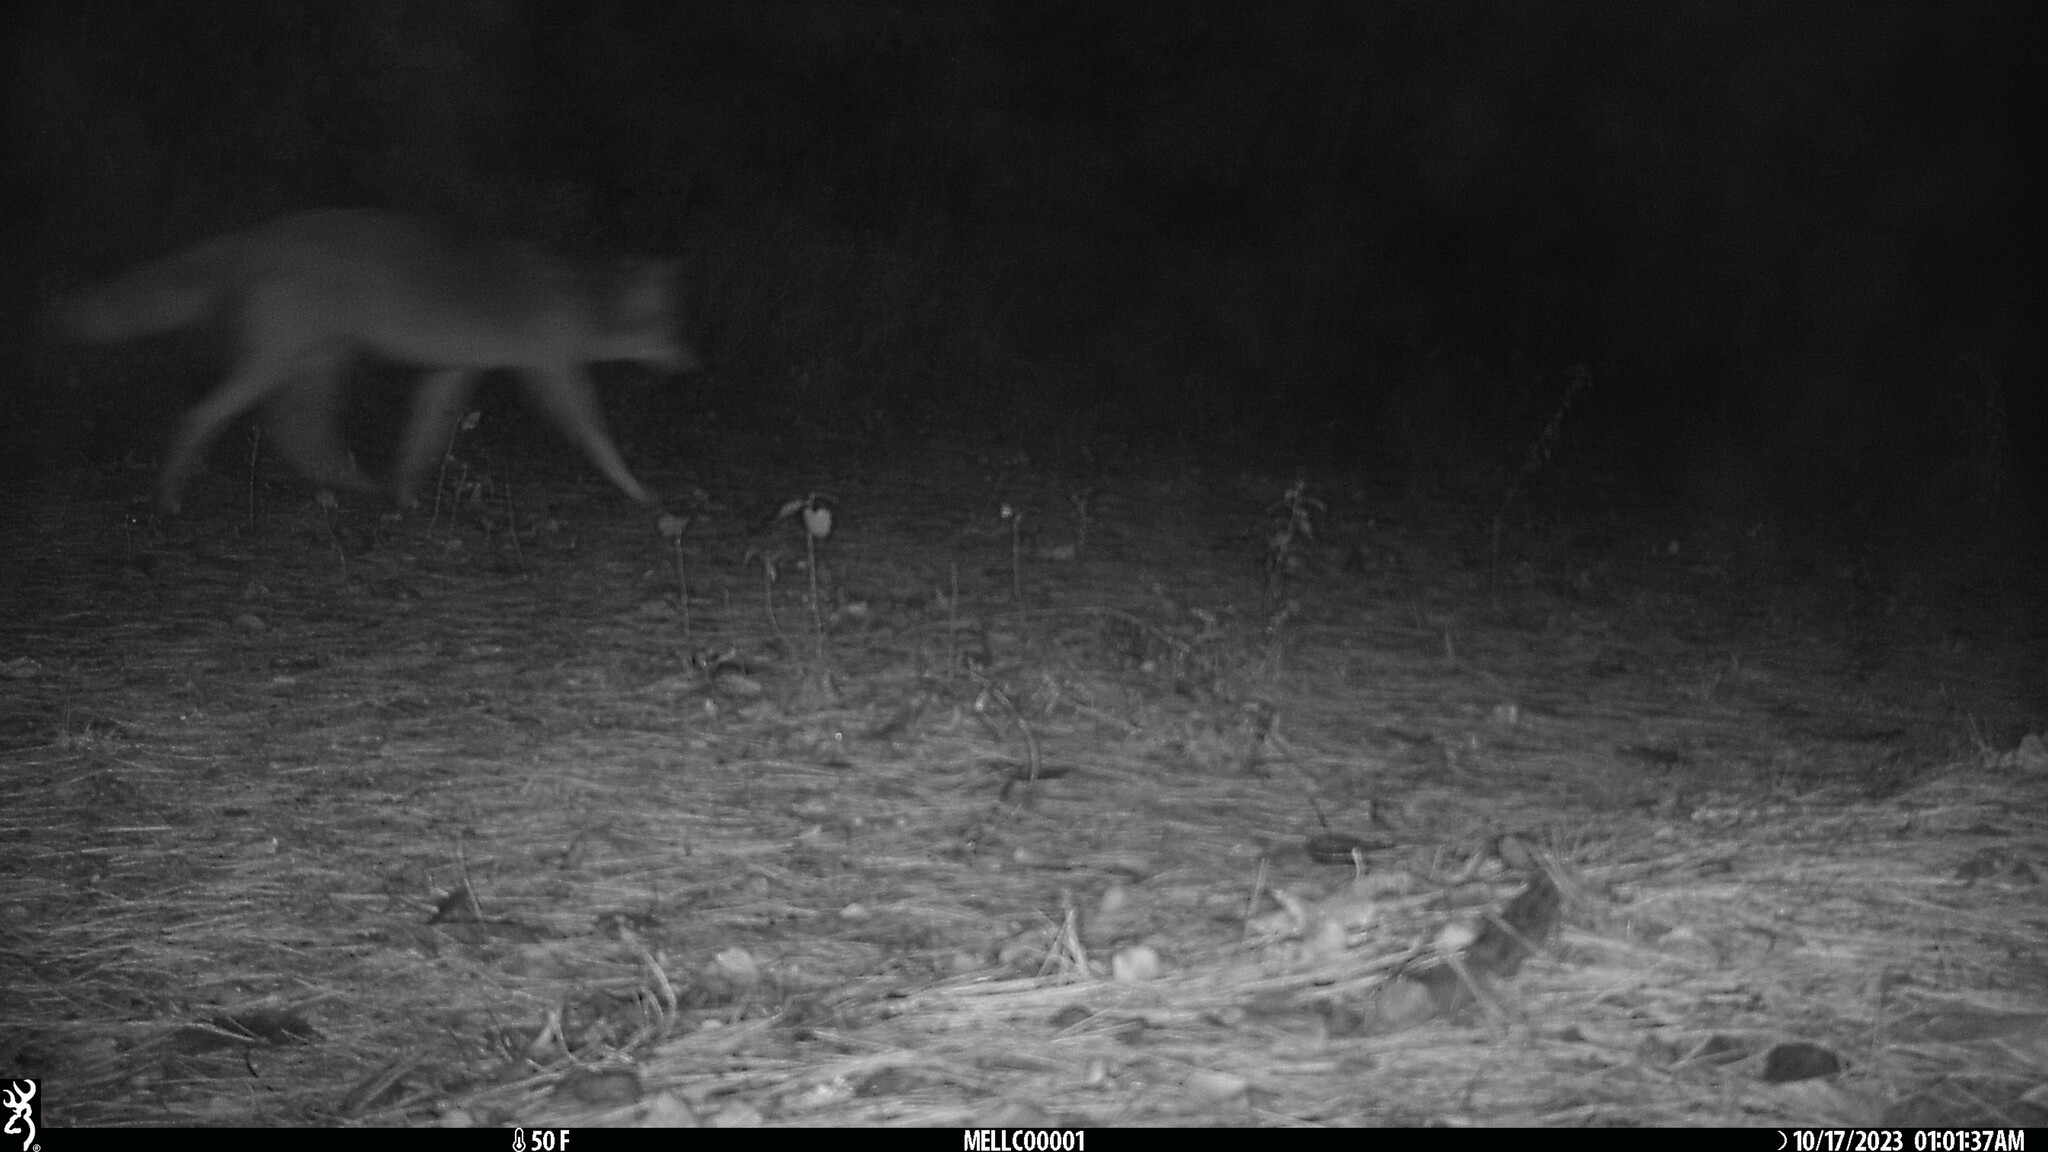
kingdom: Animalia
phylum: Chordata
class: Mammalia
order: Carnivora
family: Canidae
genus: Canis
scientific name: Canis latrans
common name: Coyote
